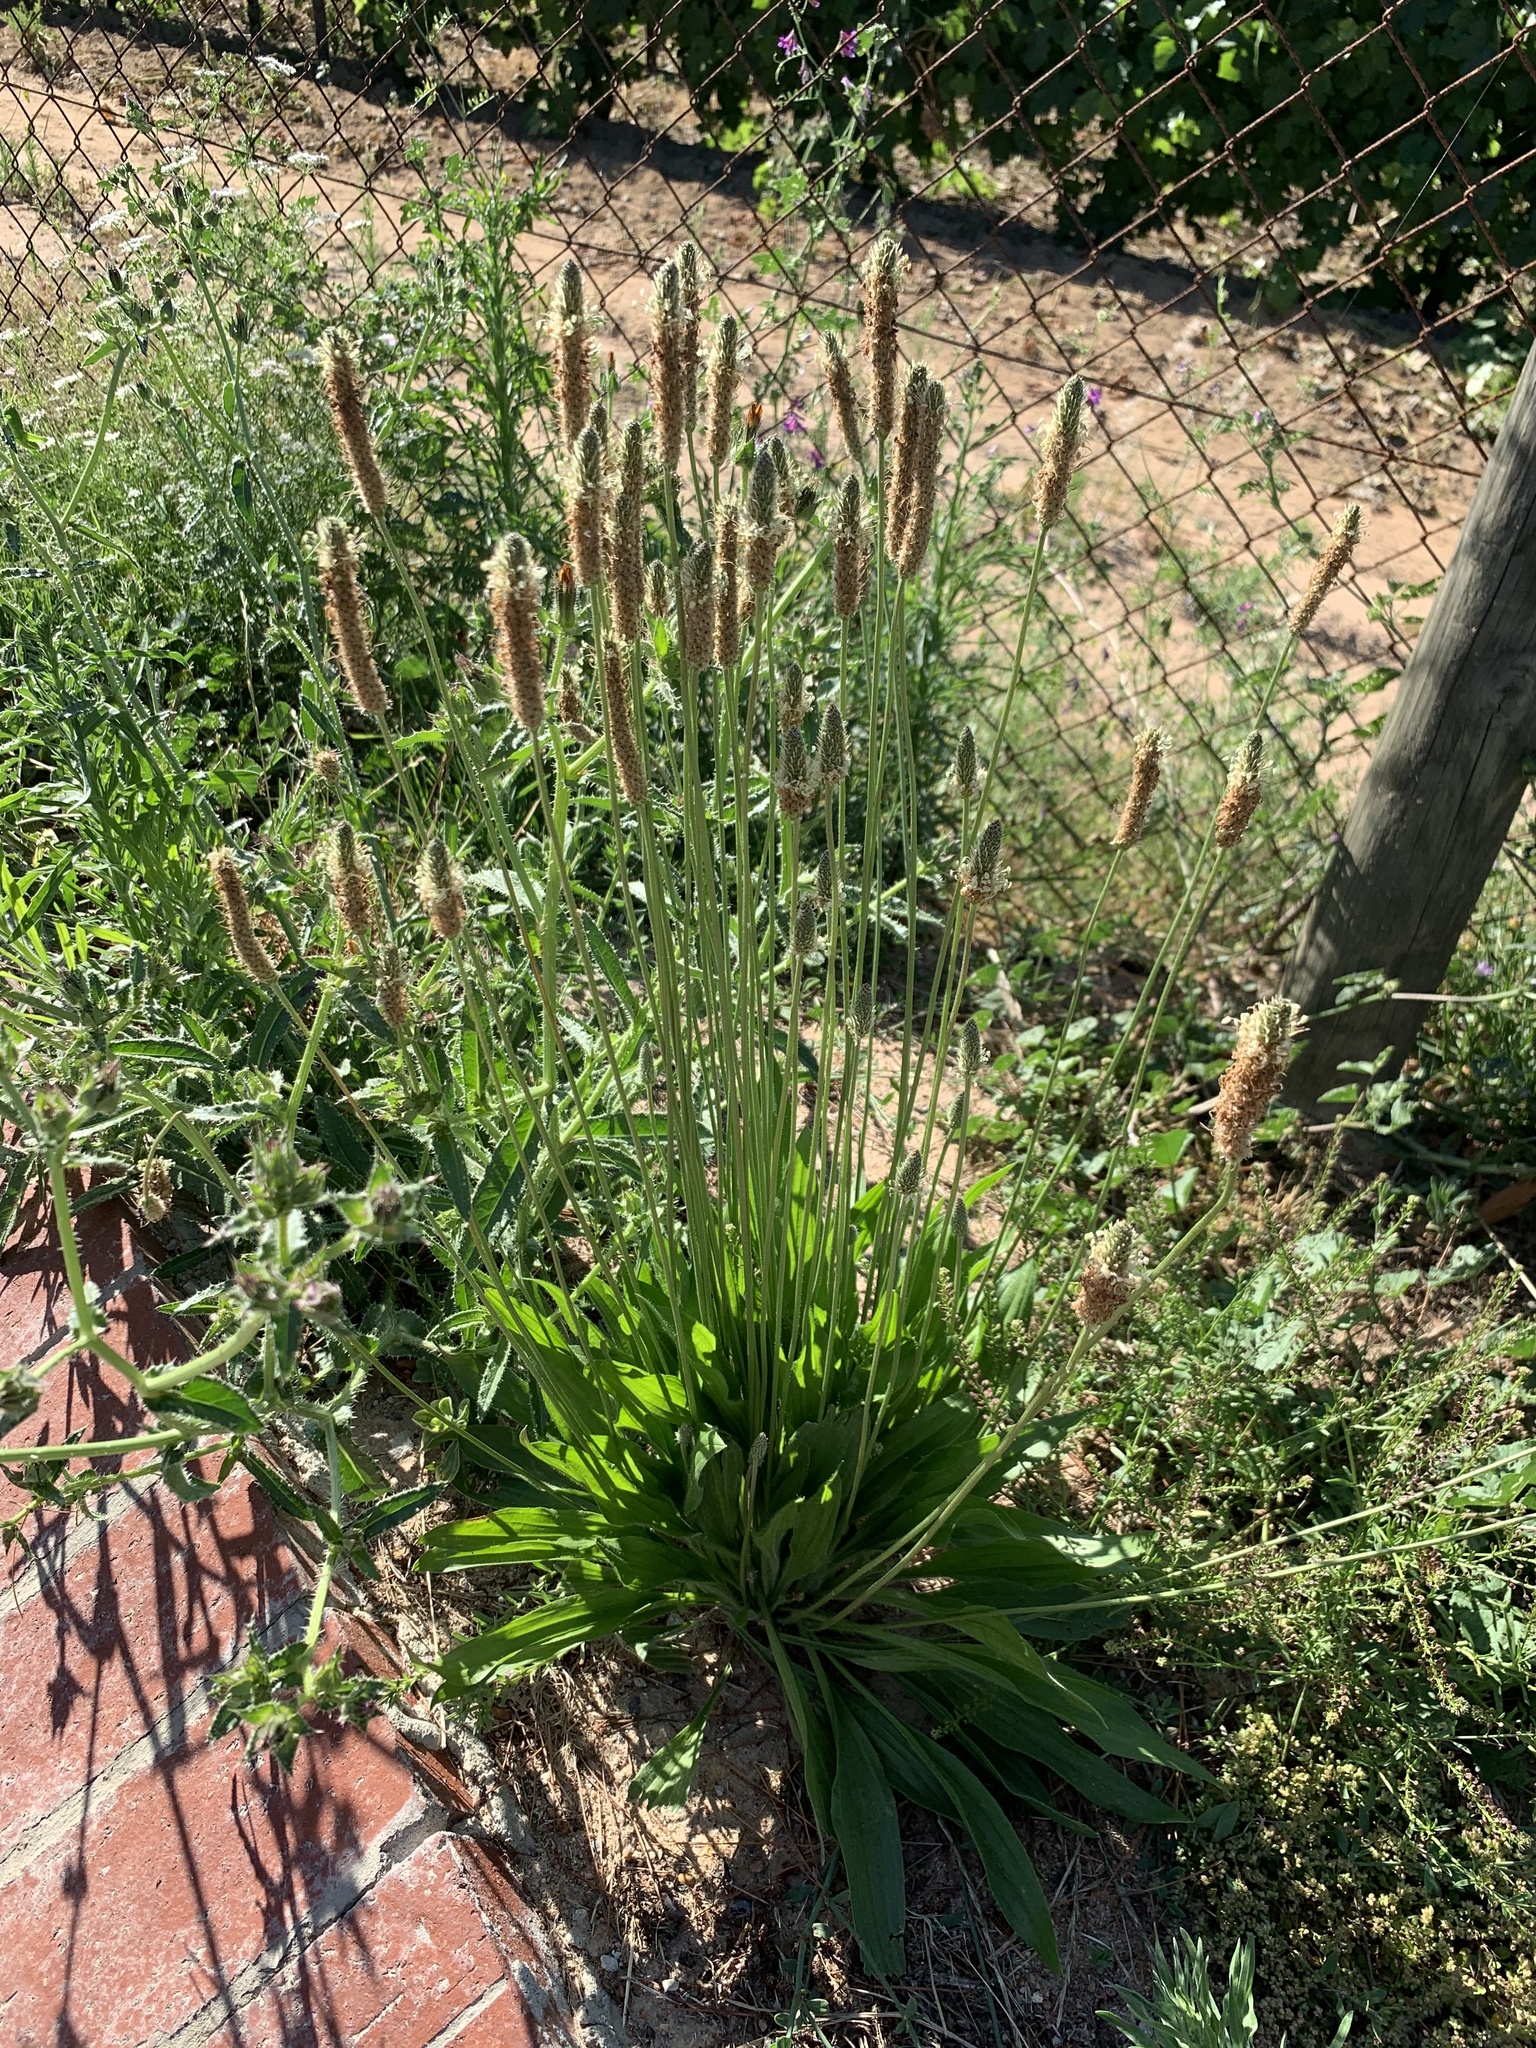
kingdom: Plantae
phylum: Tracheophyta
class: Magnoliopsida
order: Lamiales
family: Plantaginaceae
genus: Plantago
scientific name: Plantago lanceolata
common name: Ribwort plantain
